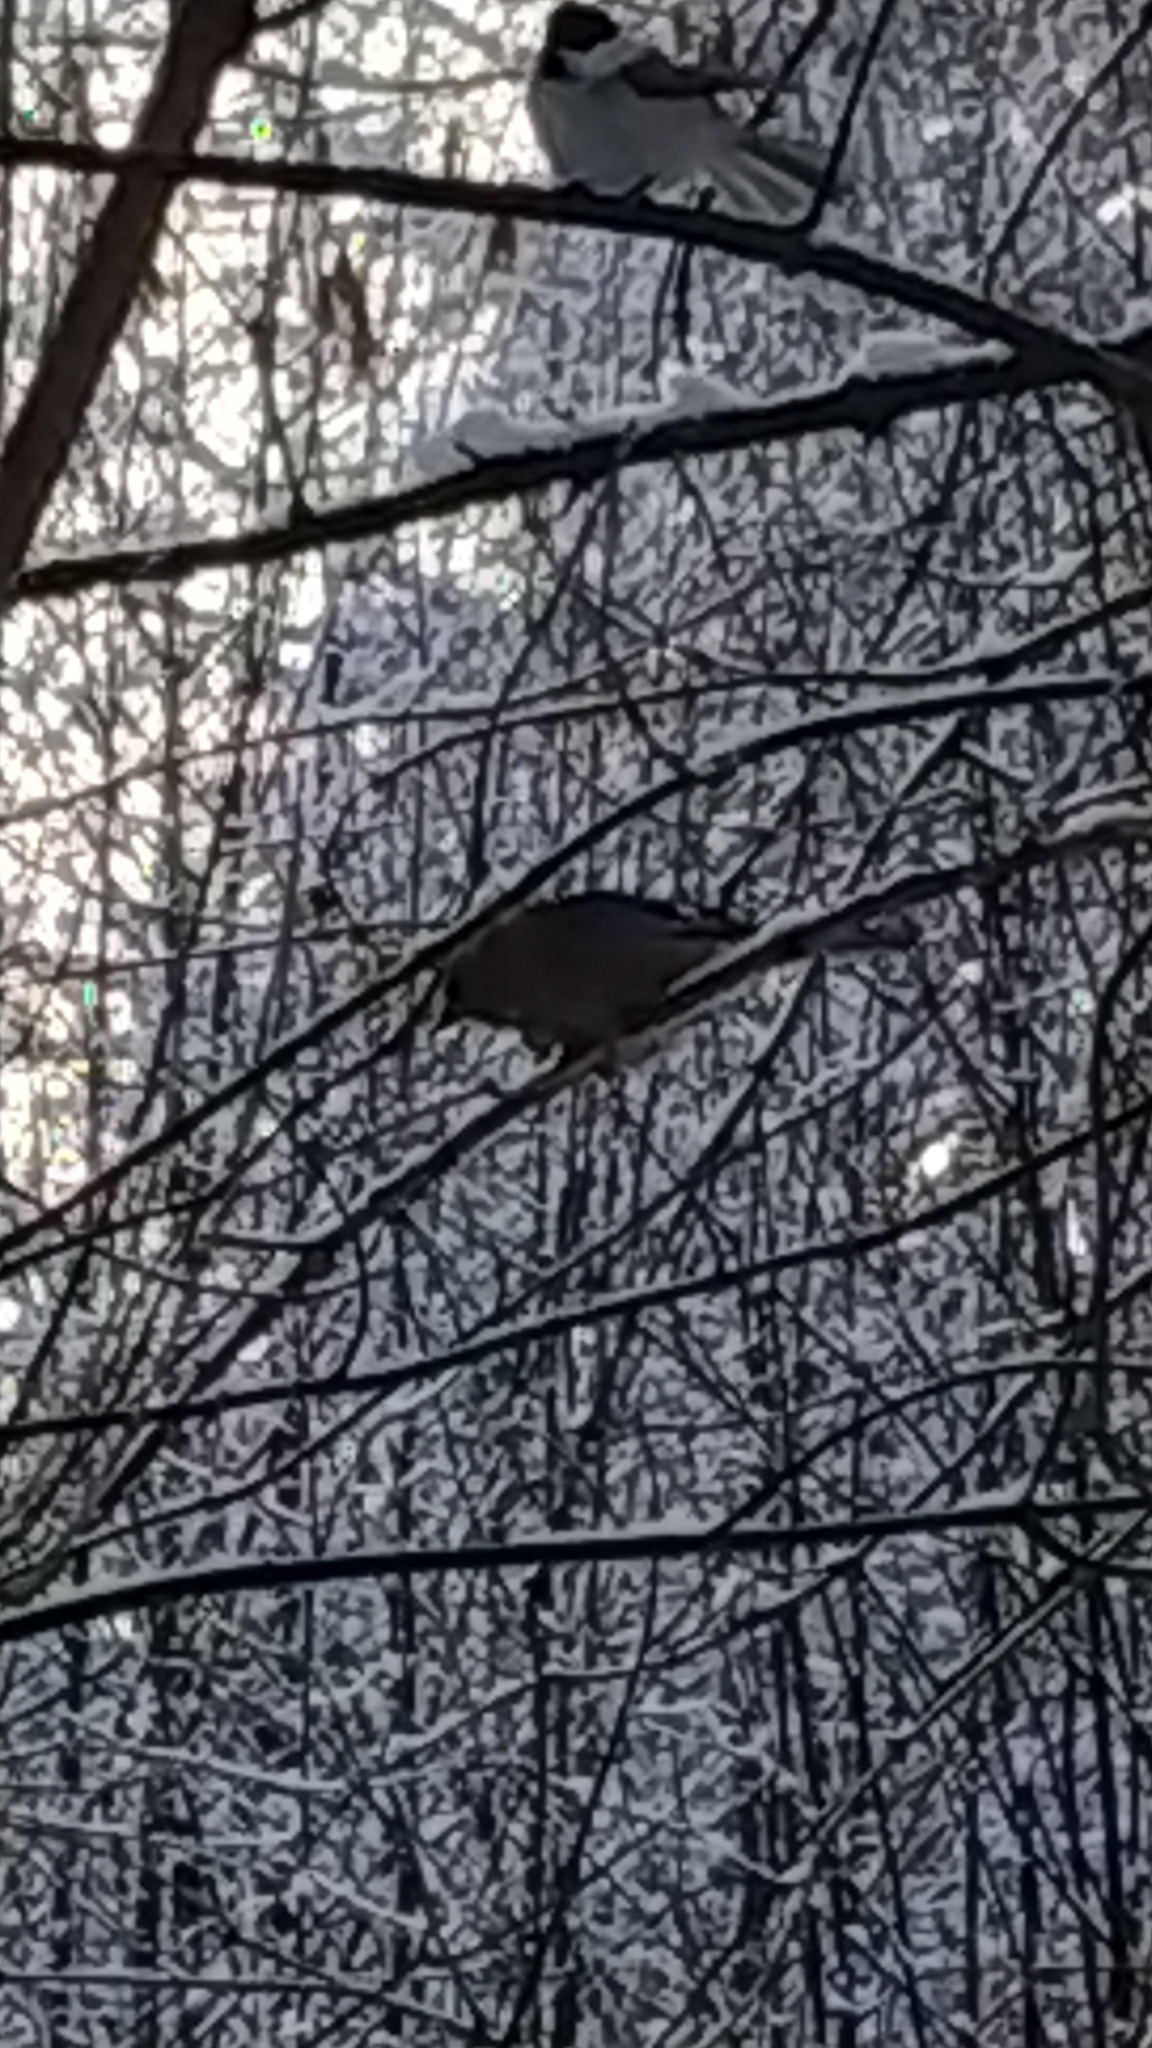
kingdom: Animalia
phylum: Chordata
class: Aves
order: Passeriformes
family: Corvidae
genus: Garrulus
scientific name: Garrulus glandarius
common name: Eurasian jay
